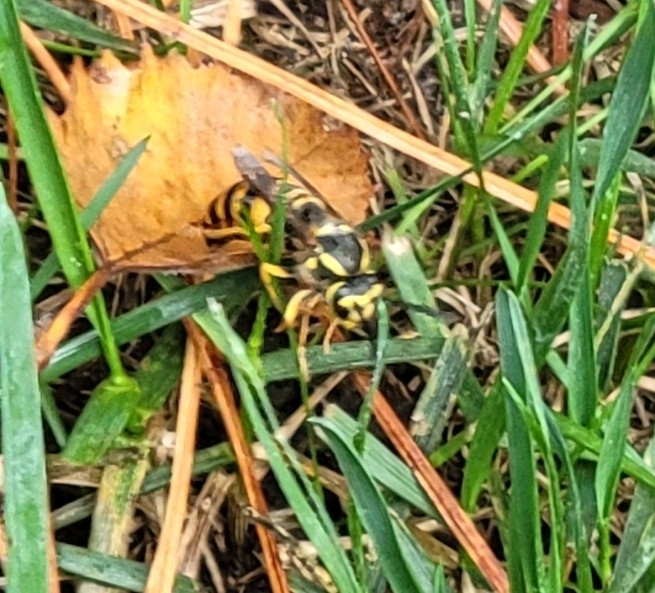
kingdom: Animalia
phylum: Arthropoda
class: Insecta
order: Hymenoptera
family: Vespidae
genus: Vespula
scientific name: Vespula maculifrons
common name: Eastern yellowjacket
